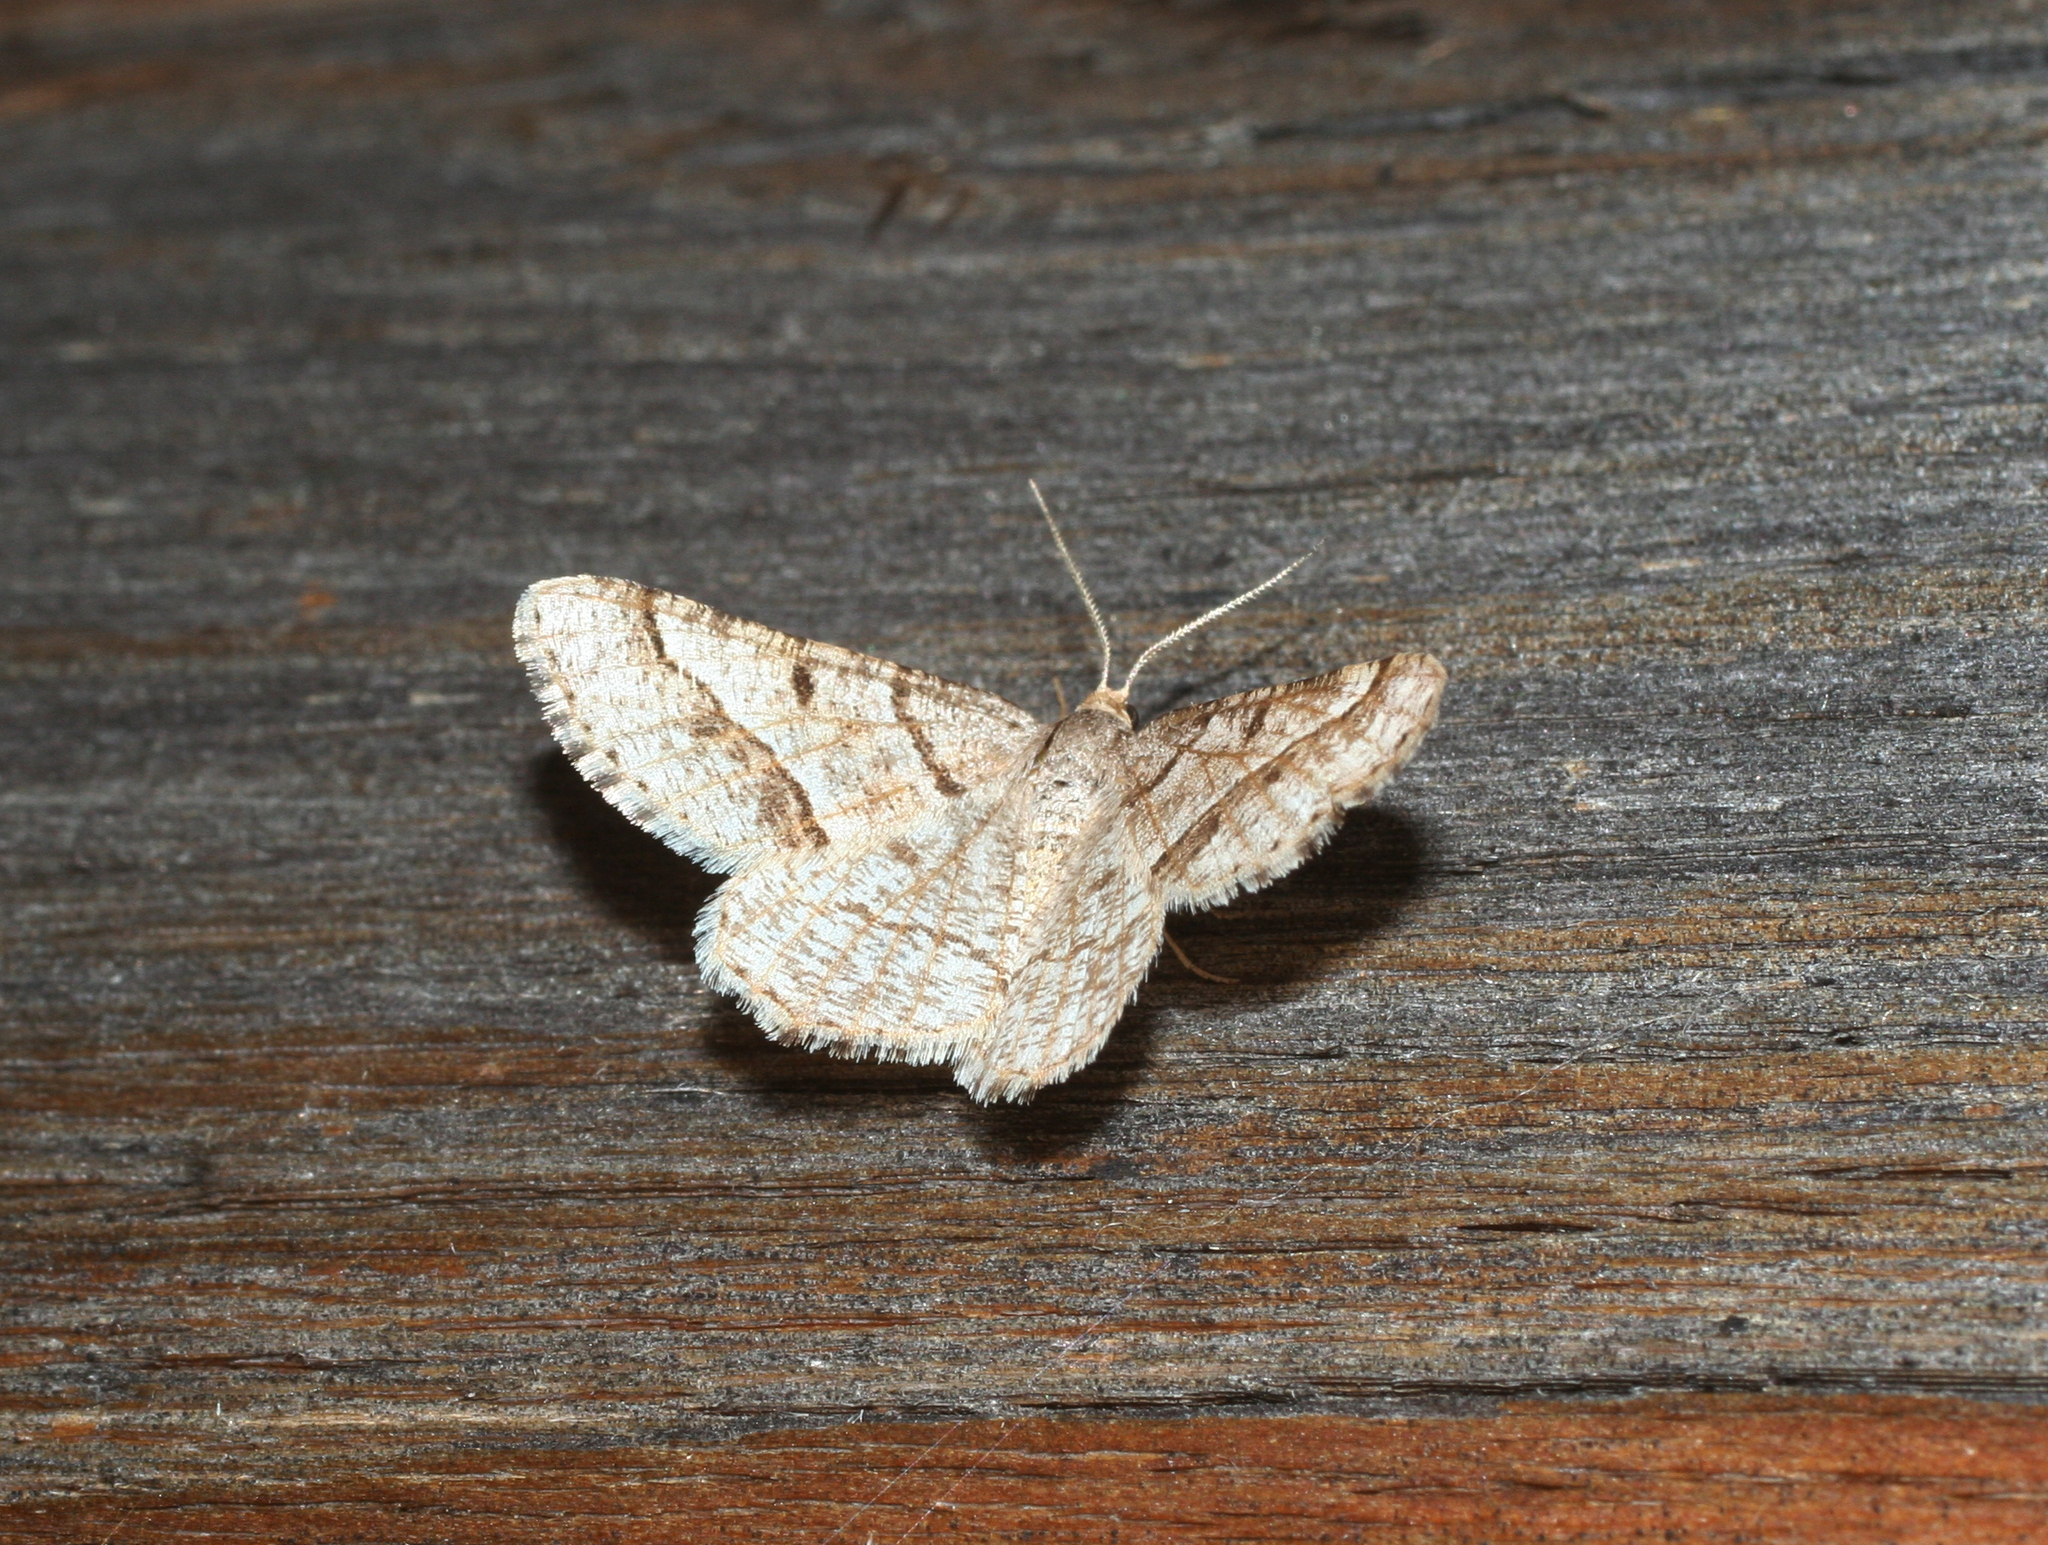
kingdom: Animalia
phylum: Arthropoda
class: Insecta
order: Lepidoptera
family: Geometridae
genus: Tephrina
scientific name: Tephrina murinaria
